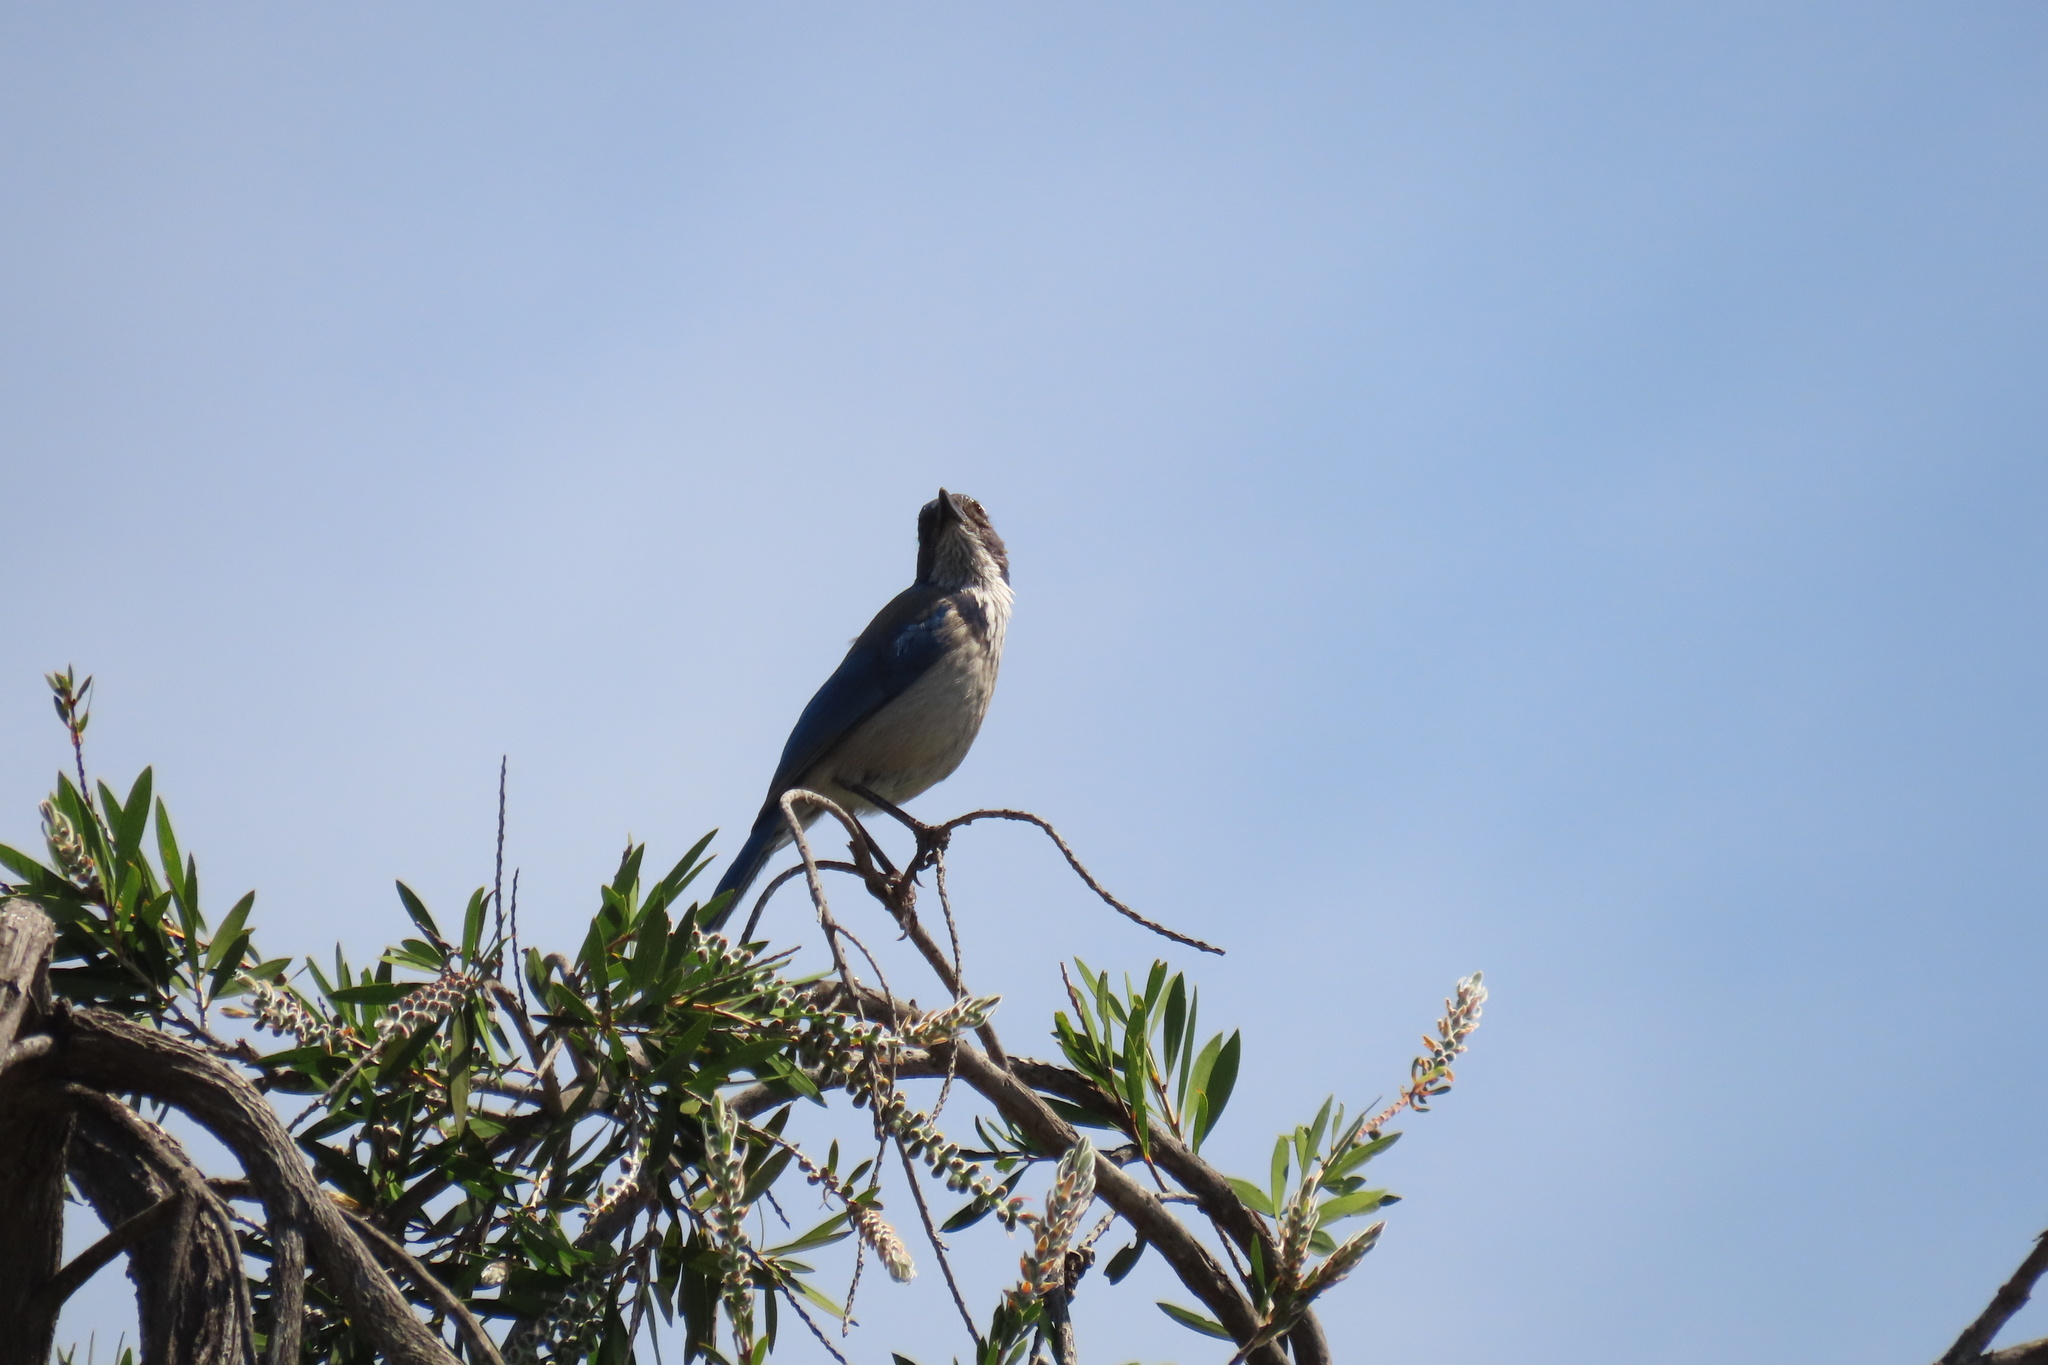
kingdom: Animalia
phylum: Chordata
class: Aves
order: Passeriformes
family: Corvidae
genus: Aphelocoma
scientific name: Aphelocoma californica
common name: California scrub-jay
